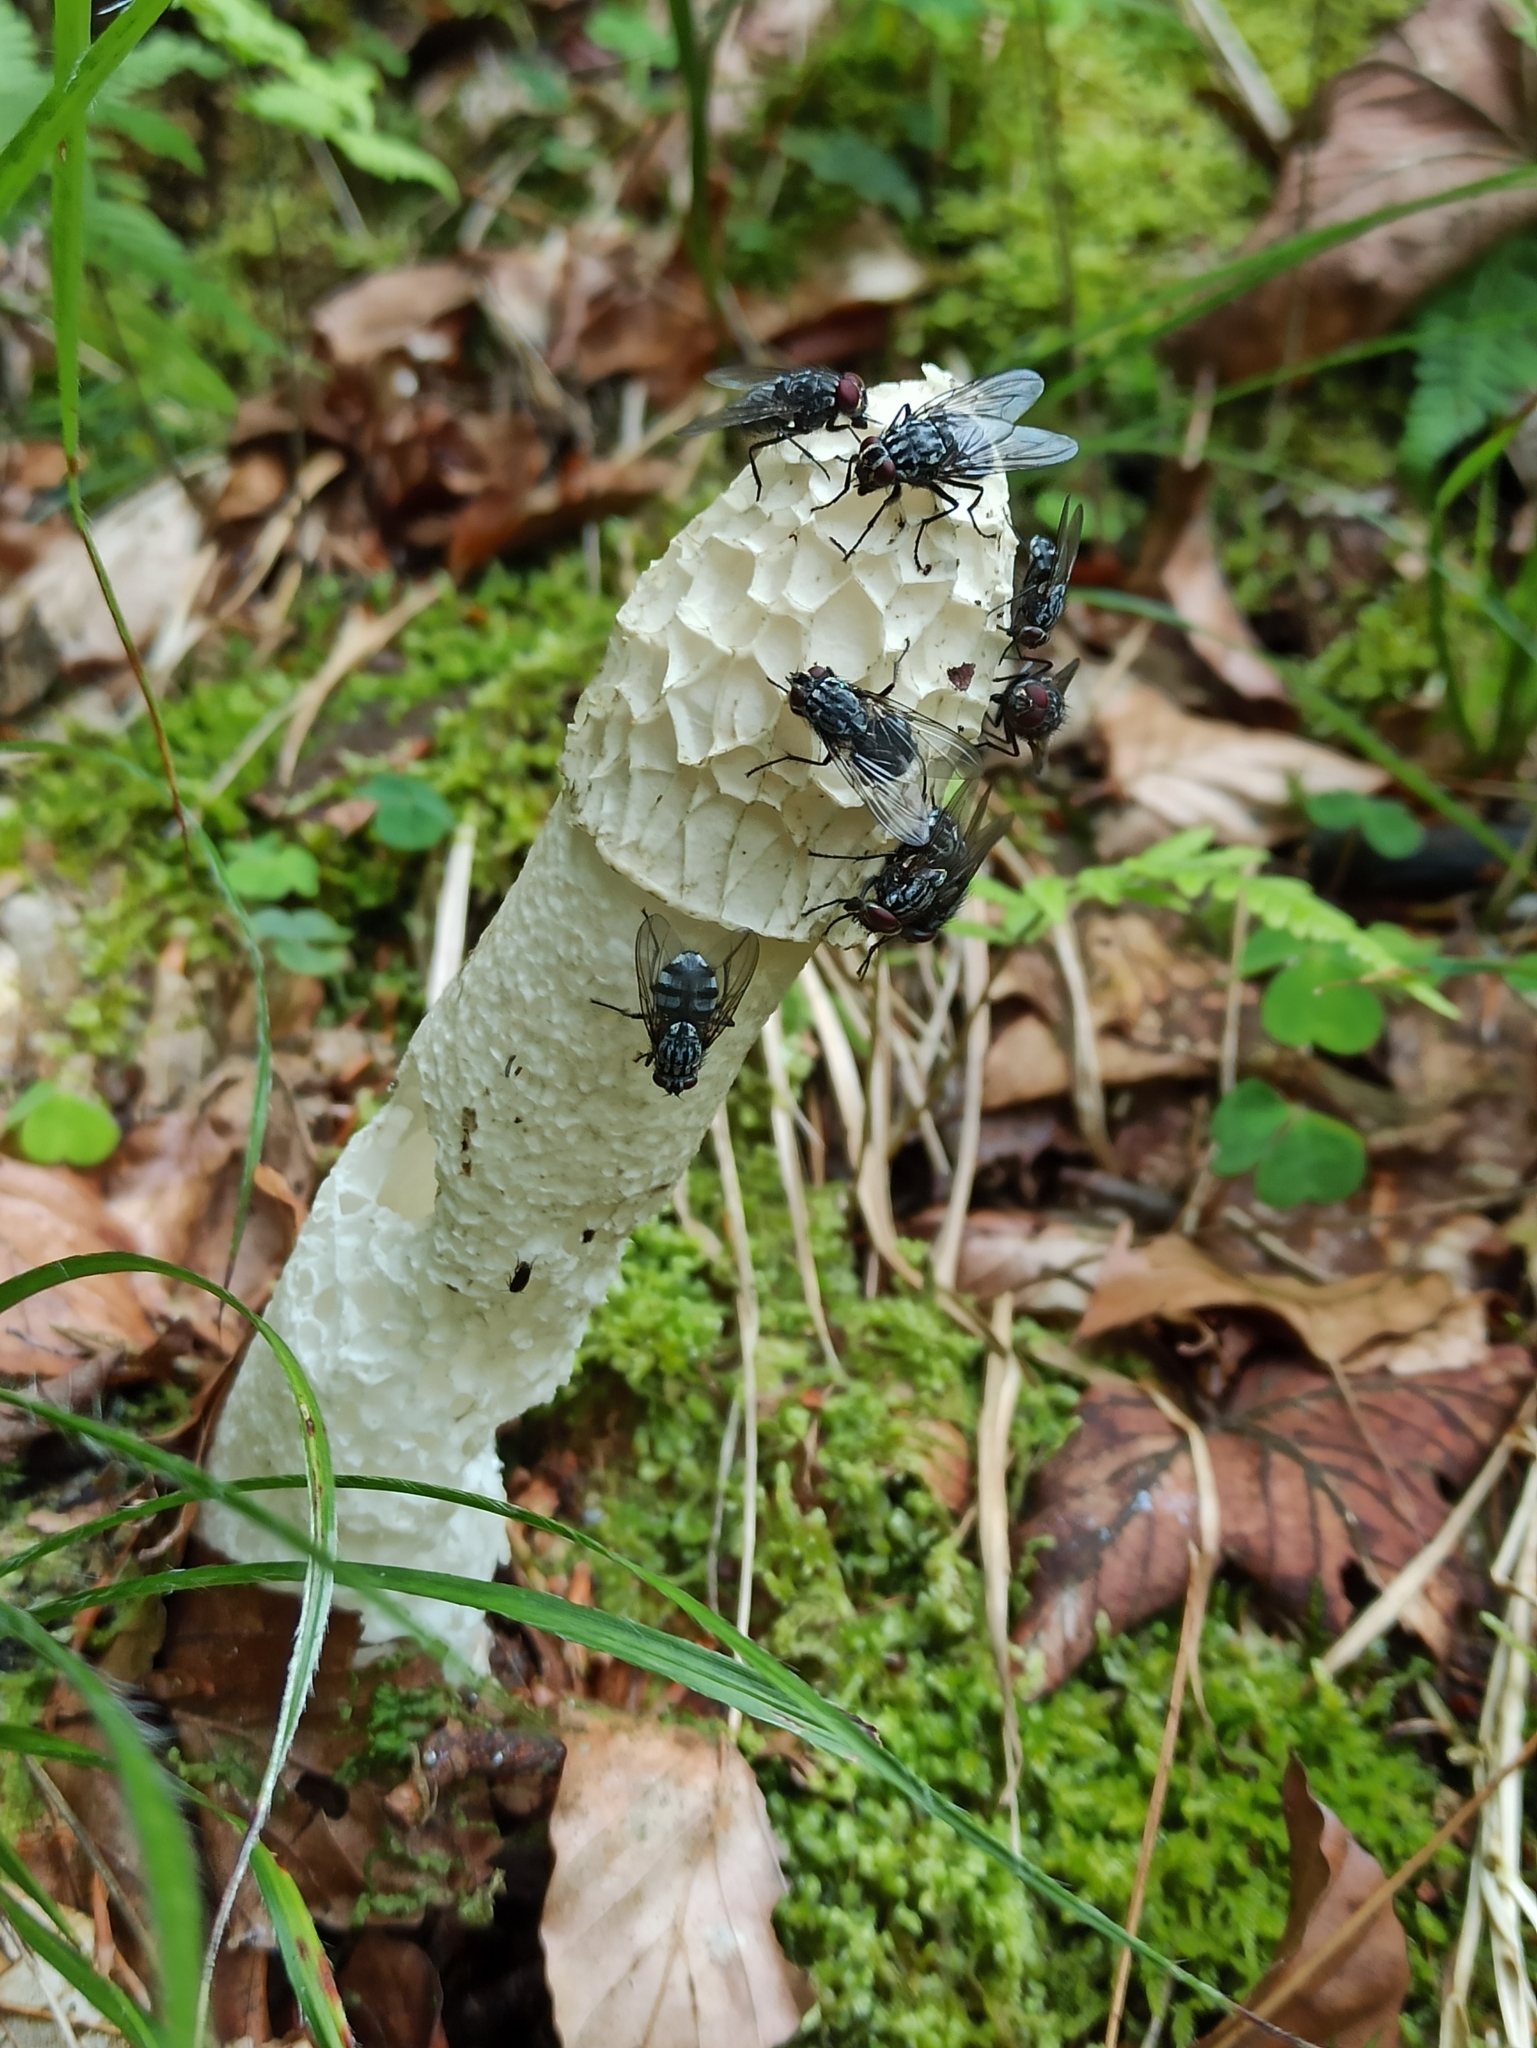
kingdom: Fungi
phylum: Basidiomycota
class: Agaricomycetes
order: Phallales
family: Phallaceae
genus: Phallus
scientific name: Phallus impudicus
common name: Common stinkhorn
